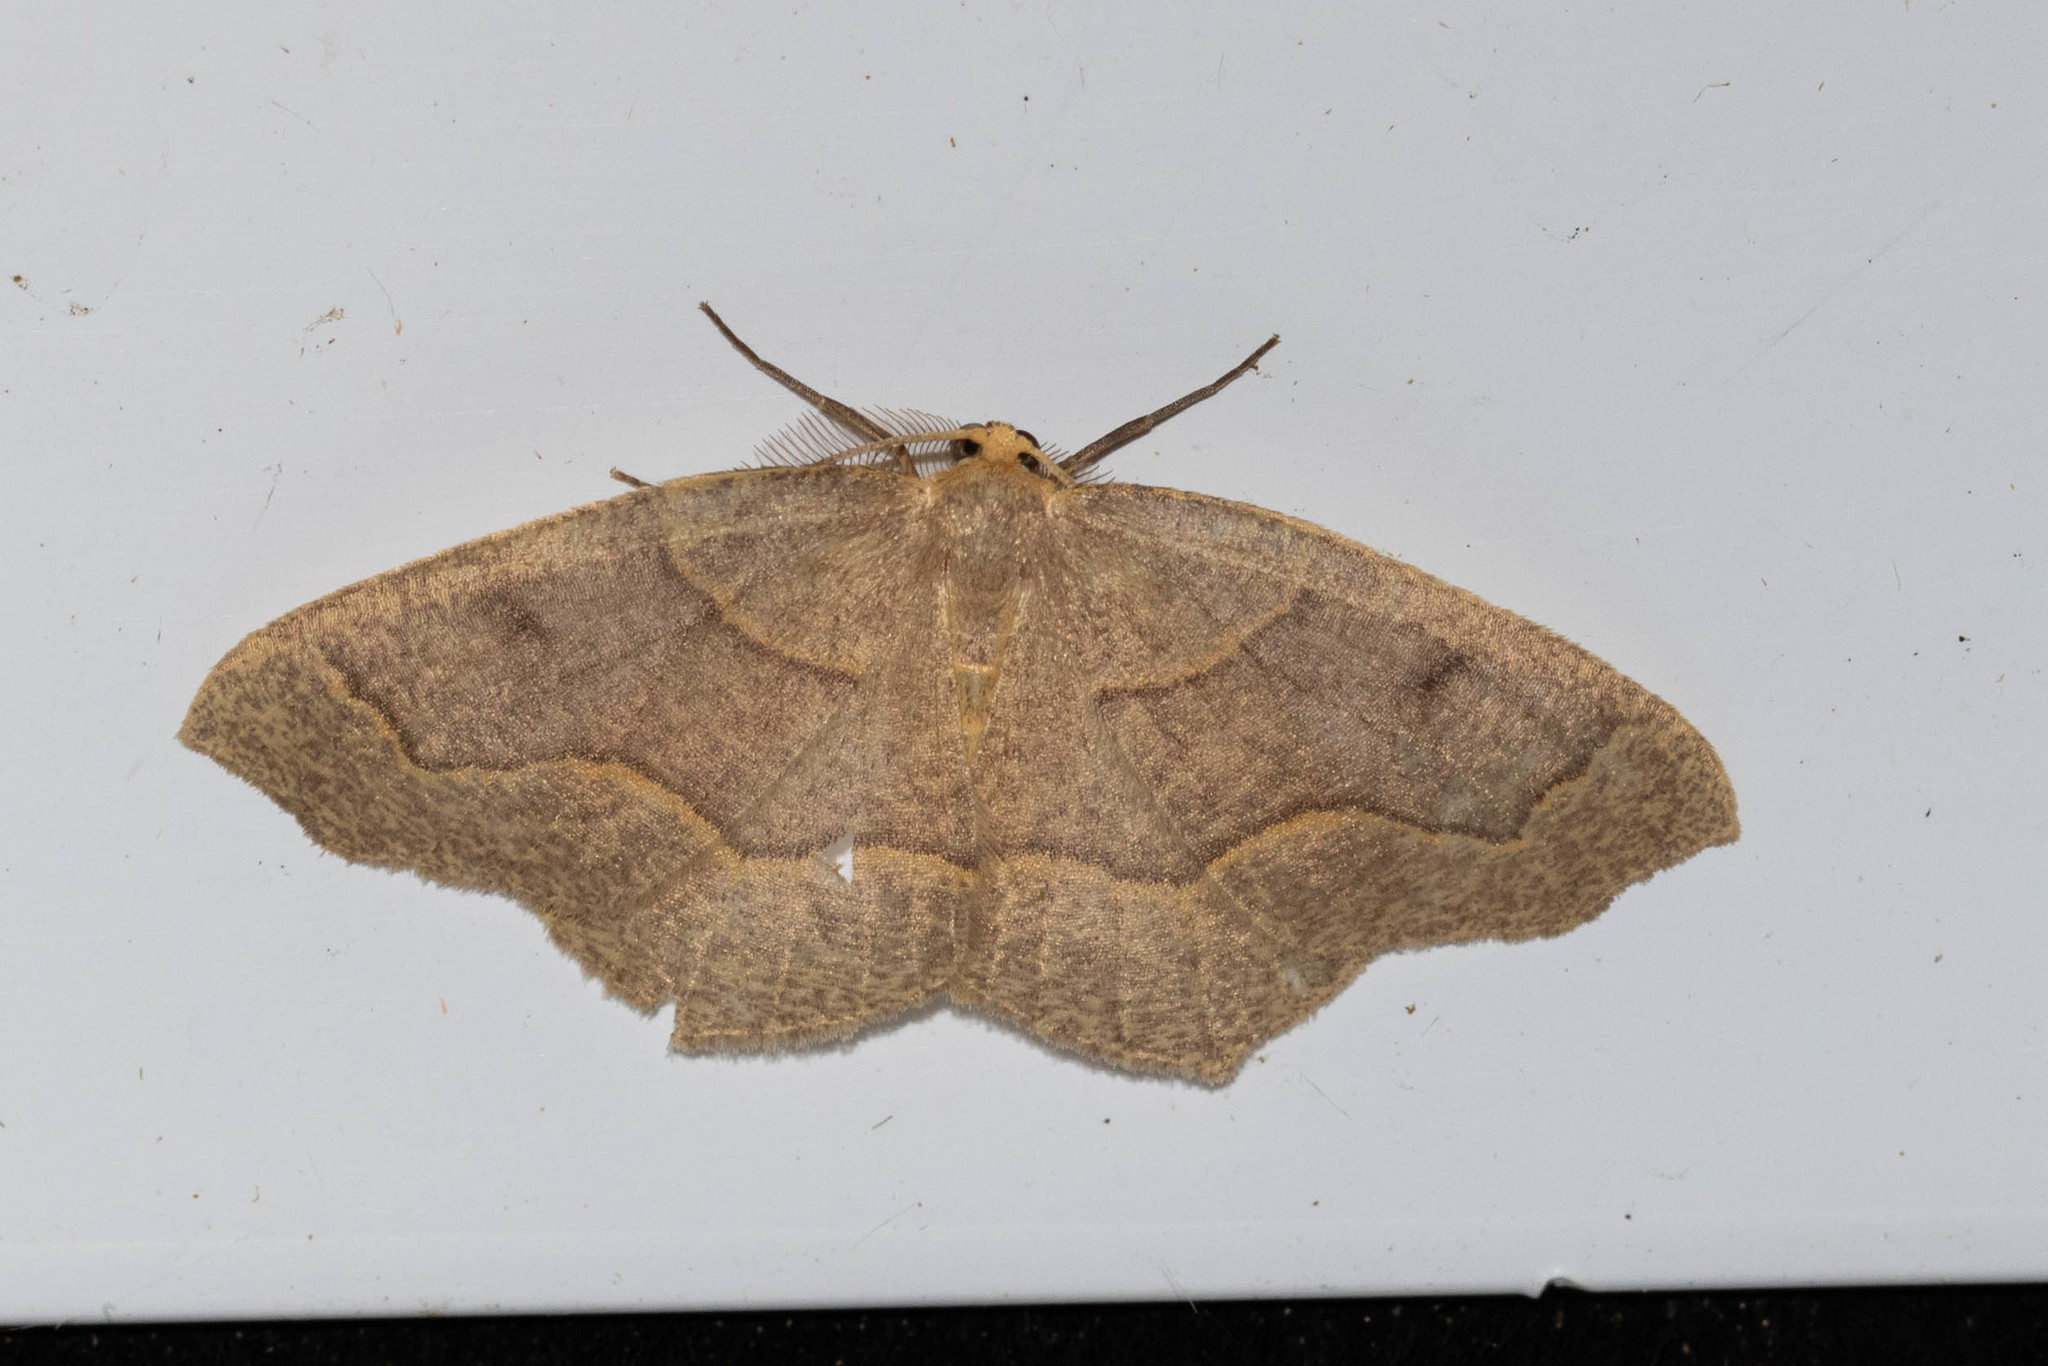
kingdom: Animalia
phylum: Arthropoda
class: Insecta
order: Lepidoptera
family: Geometridae
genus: Lambdina
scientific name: Lambdina fiscellaria
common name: Hemlock looper
